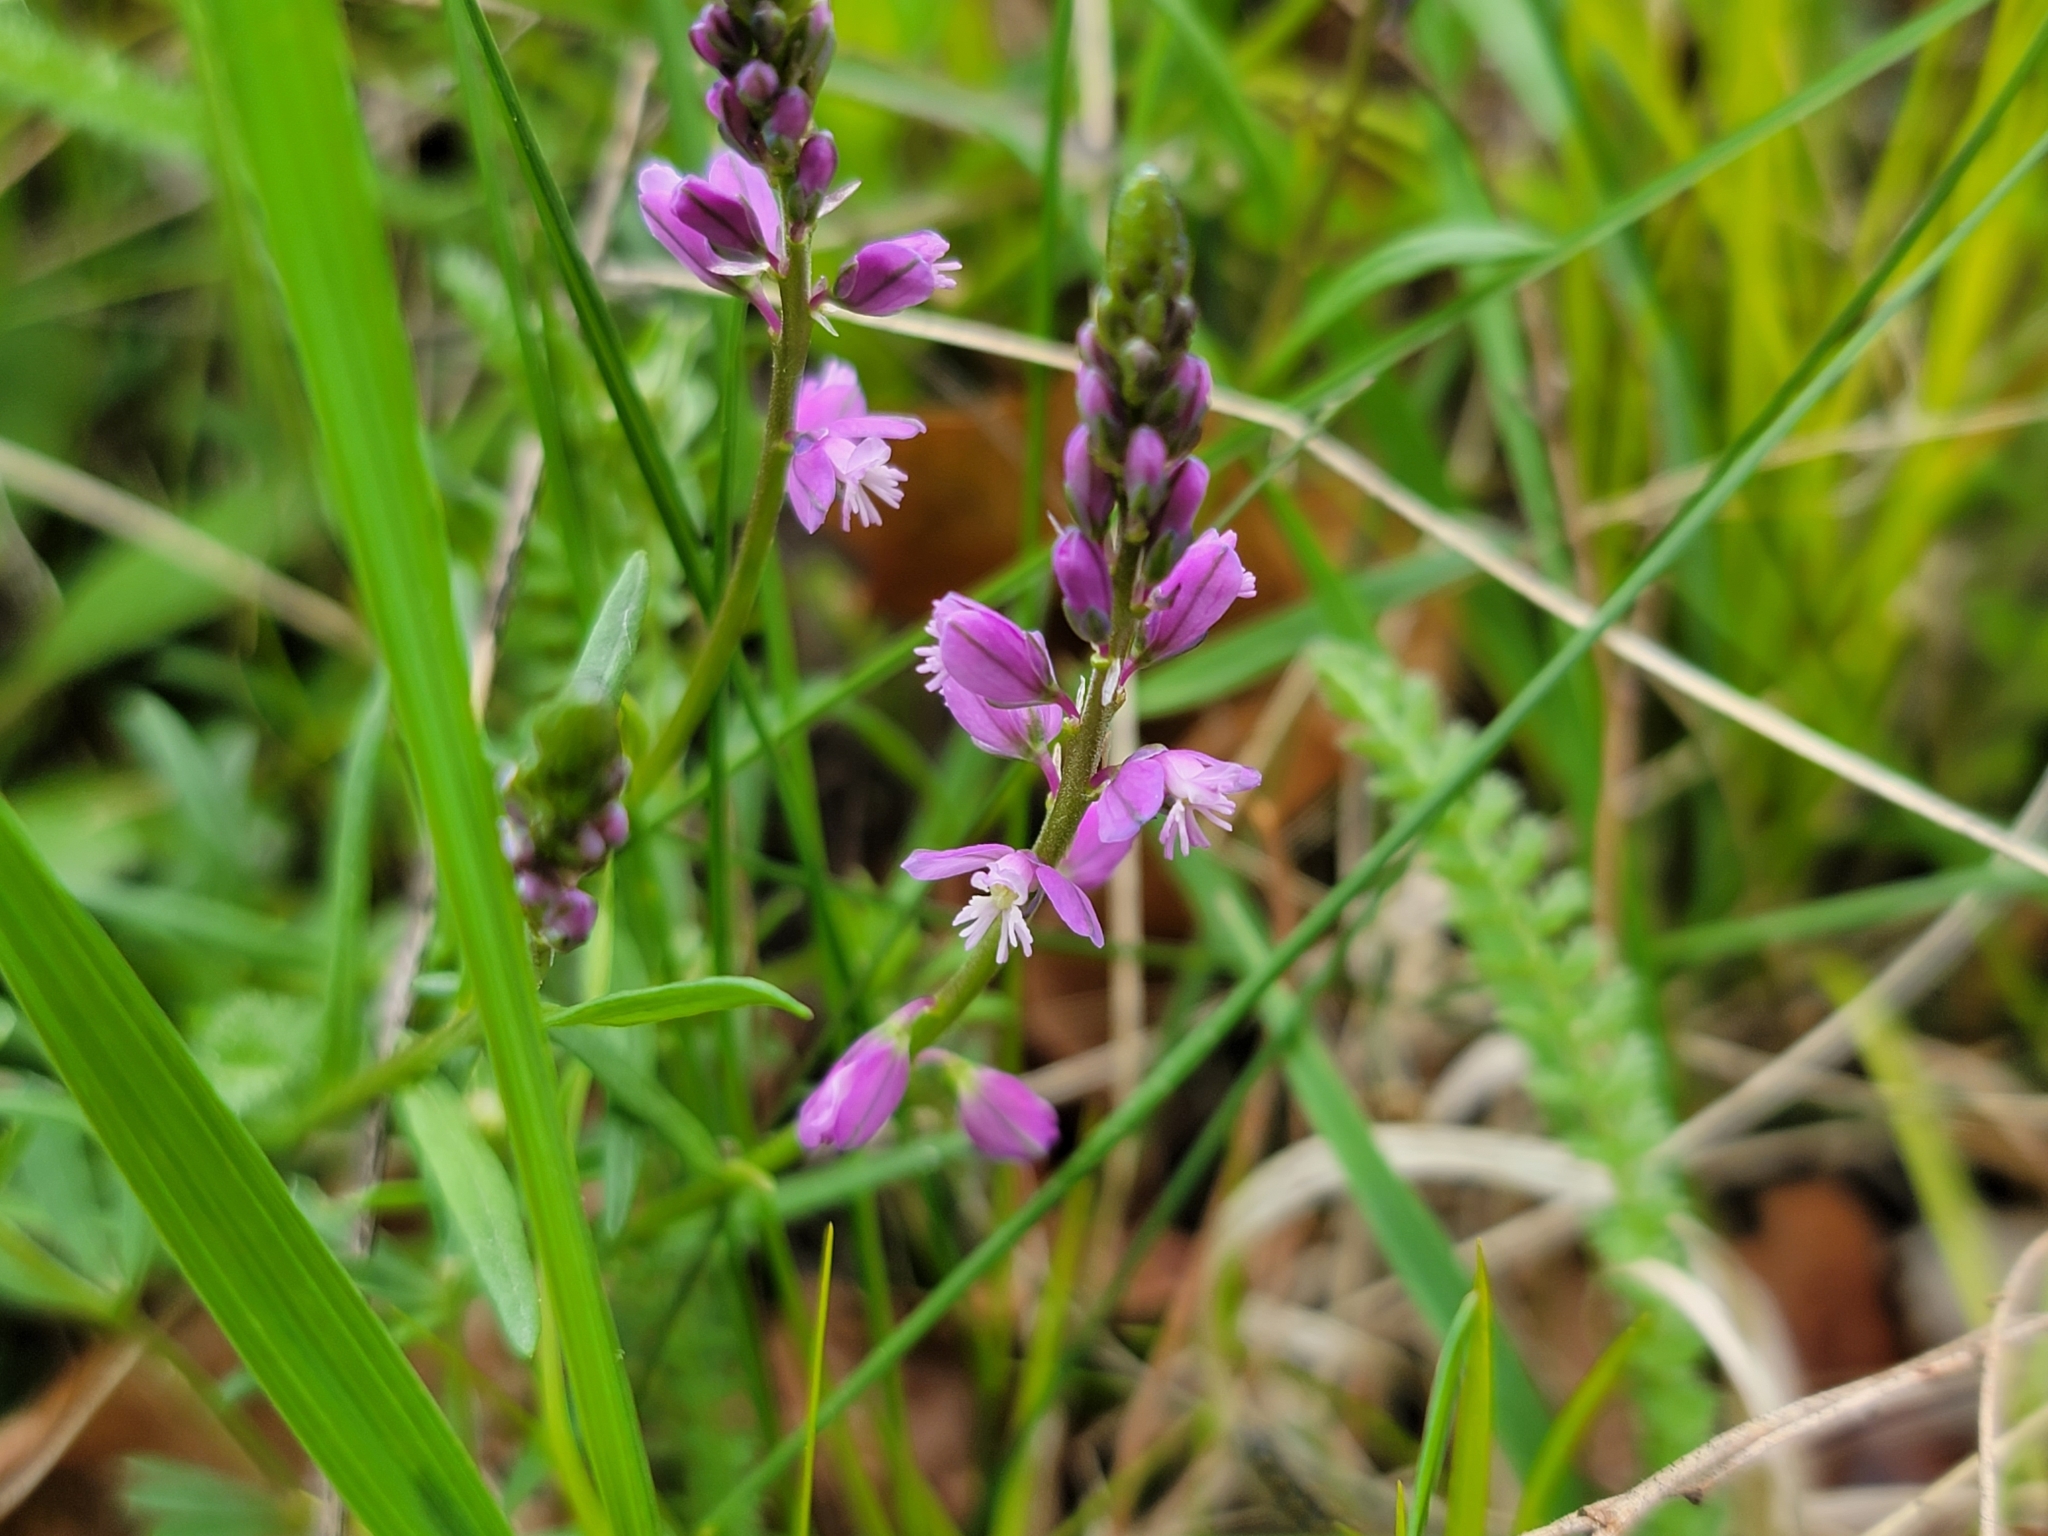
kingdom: Plantae
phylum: Tracheophyta
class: Magnoliopsida
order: Fabales
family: Polygalaceae
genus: Polygala
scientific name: Polygala comosa
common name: Tufted milkwort
